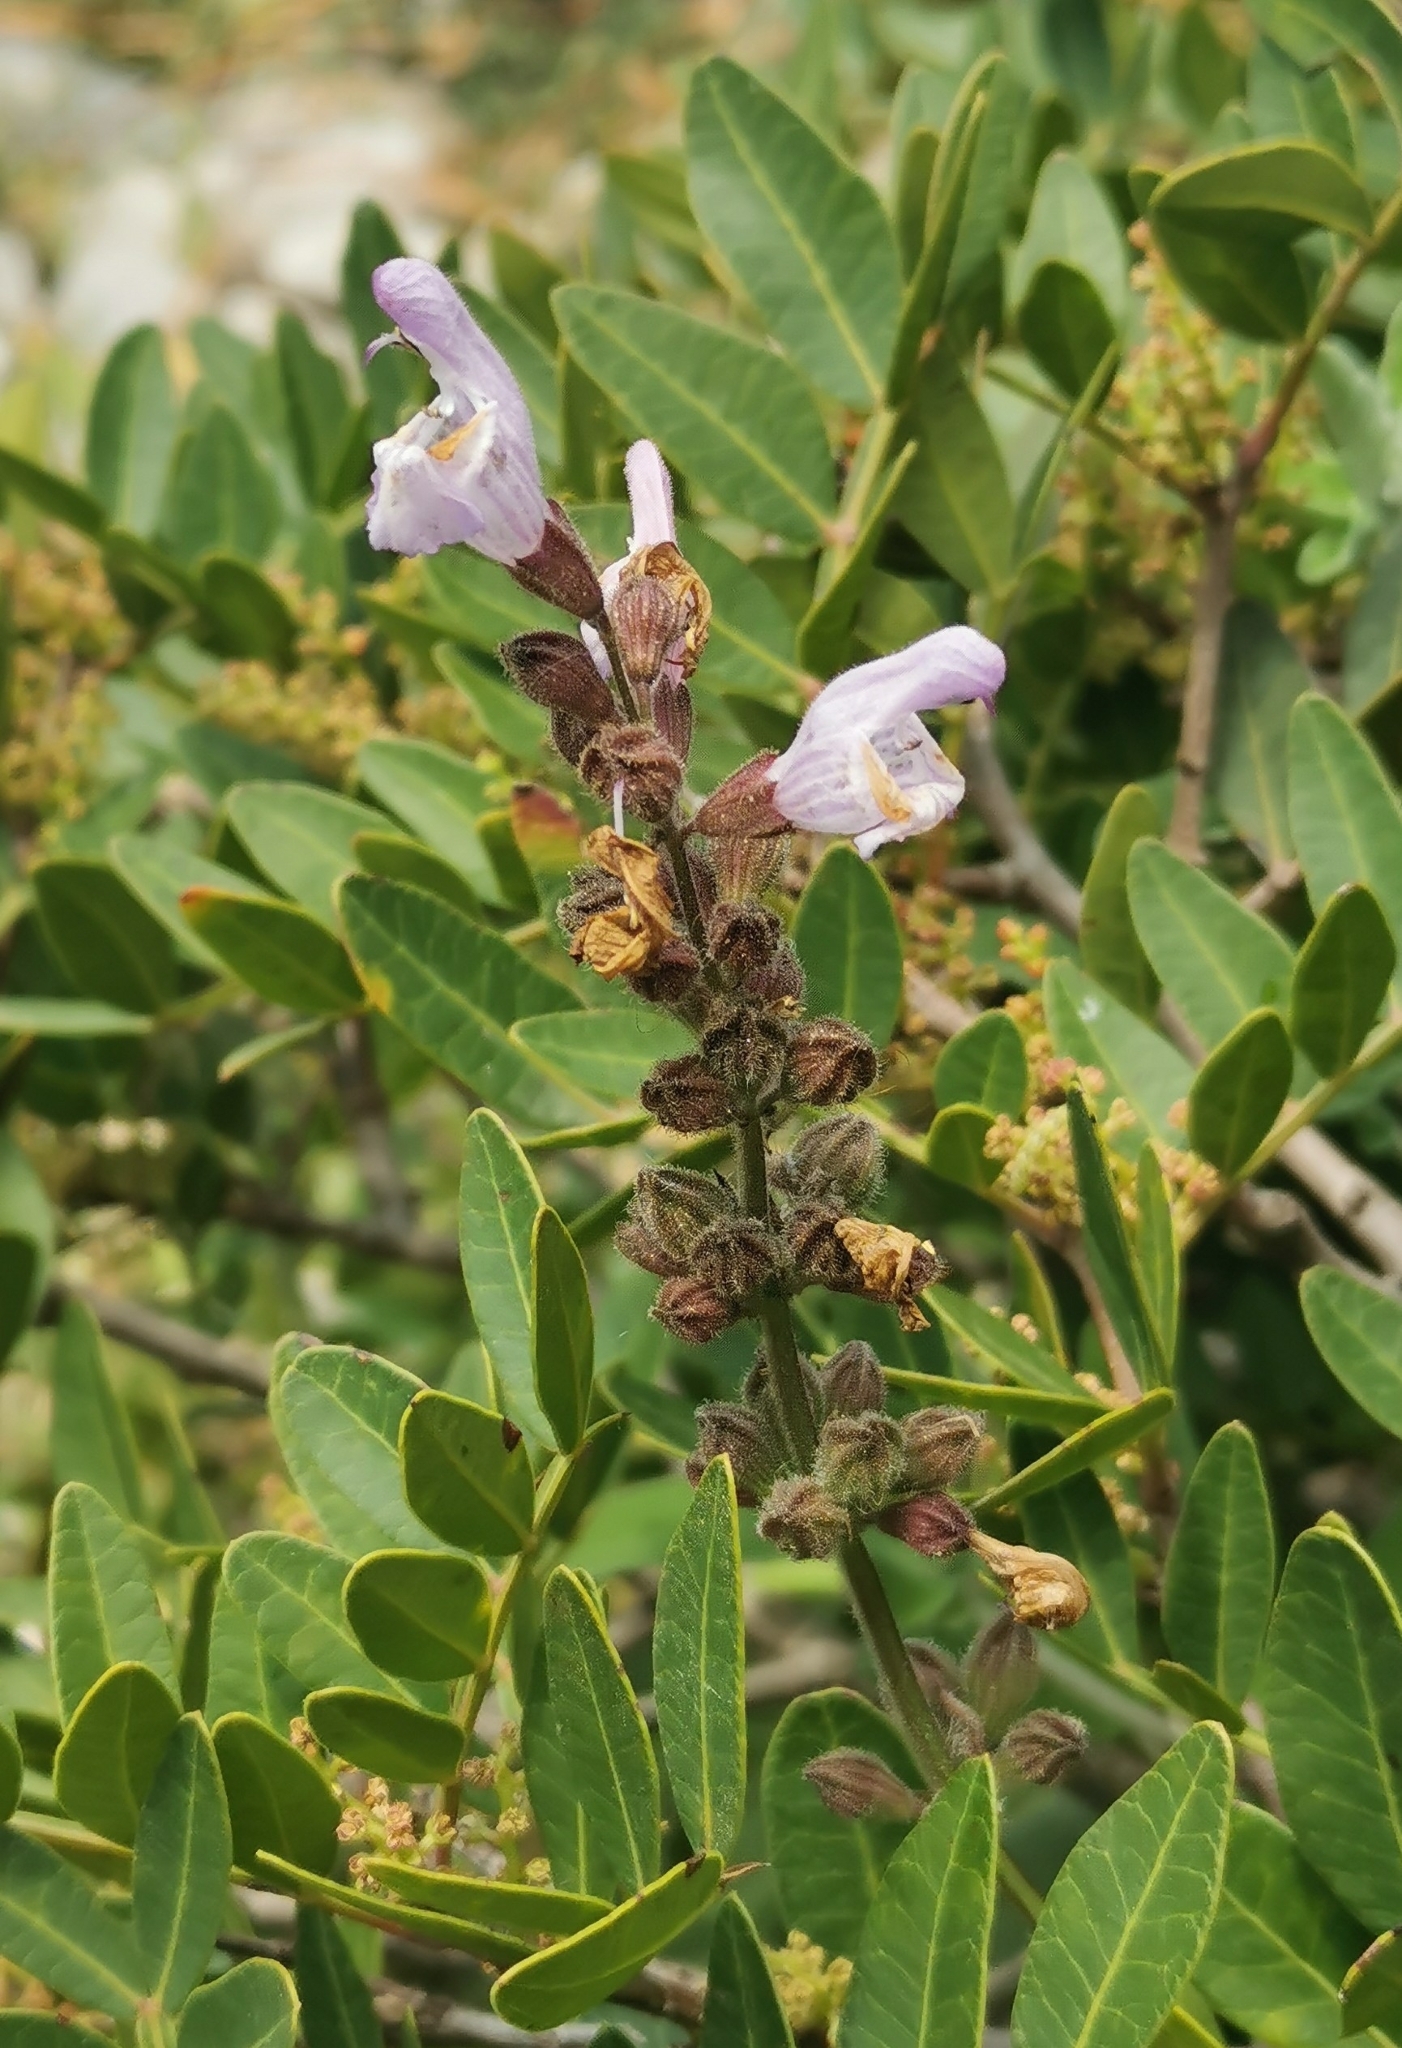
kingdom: Plantae
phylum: Tracheophyta
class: Magnoliopsida
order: Lamiales
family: Lamiaceae
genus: Salvia
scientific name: Salvia fruticosa
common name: Greek sage
